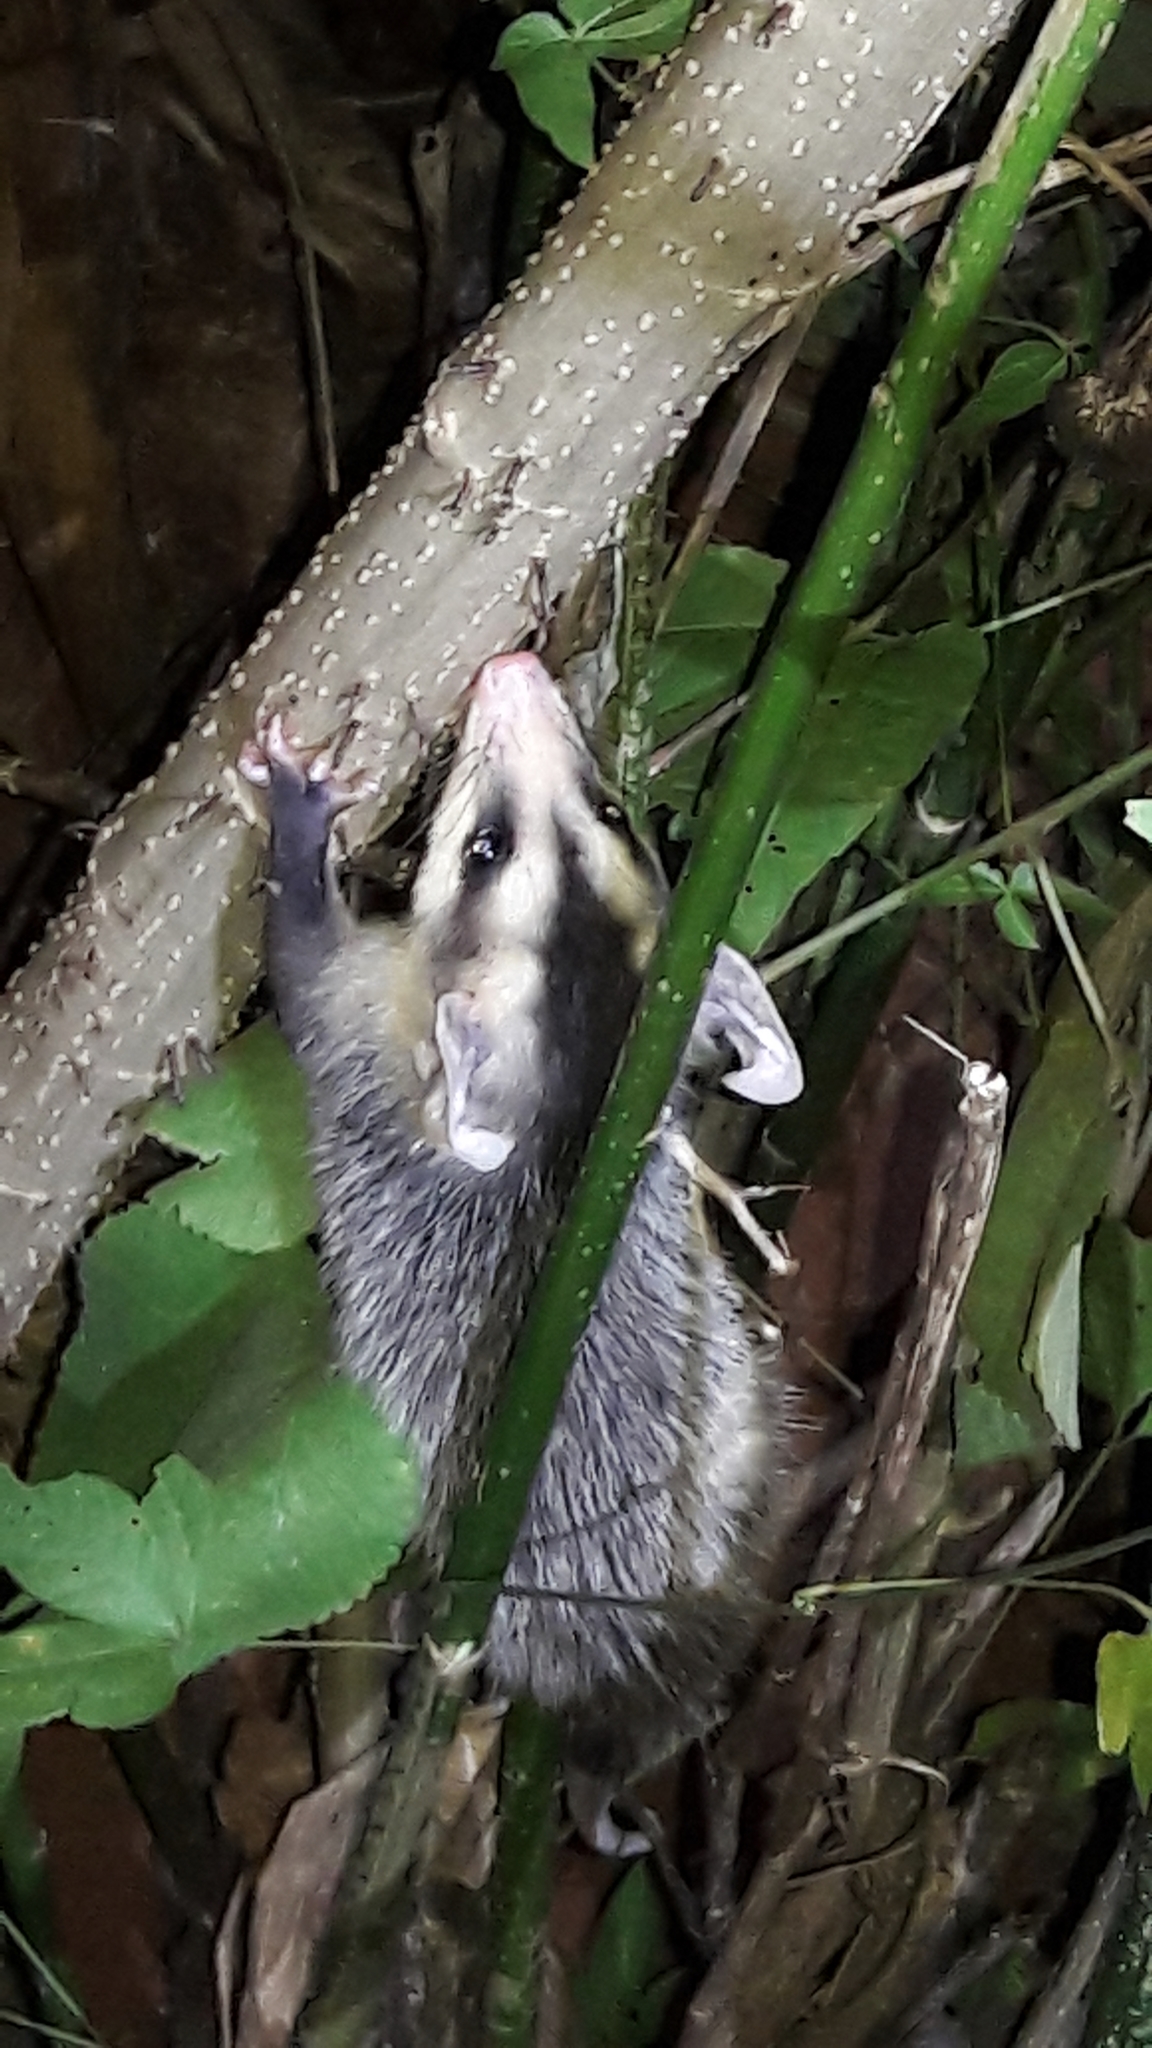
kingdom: Animalia
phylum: Chordata
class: Mammalia
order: Didelphimorphia
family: Didelphidae
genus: Didelphis
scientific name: Didelphis albiventris
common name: White-eared opossum
